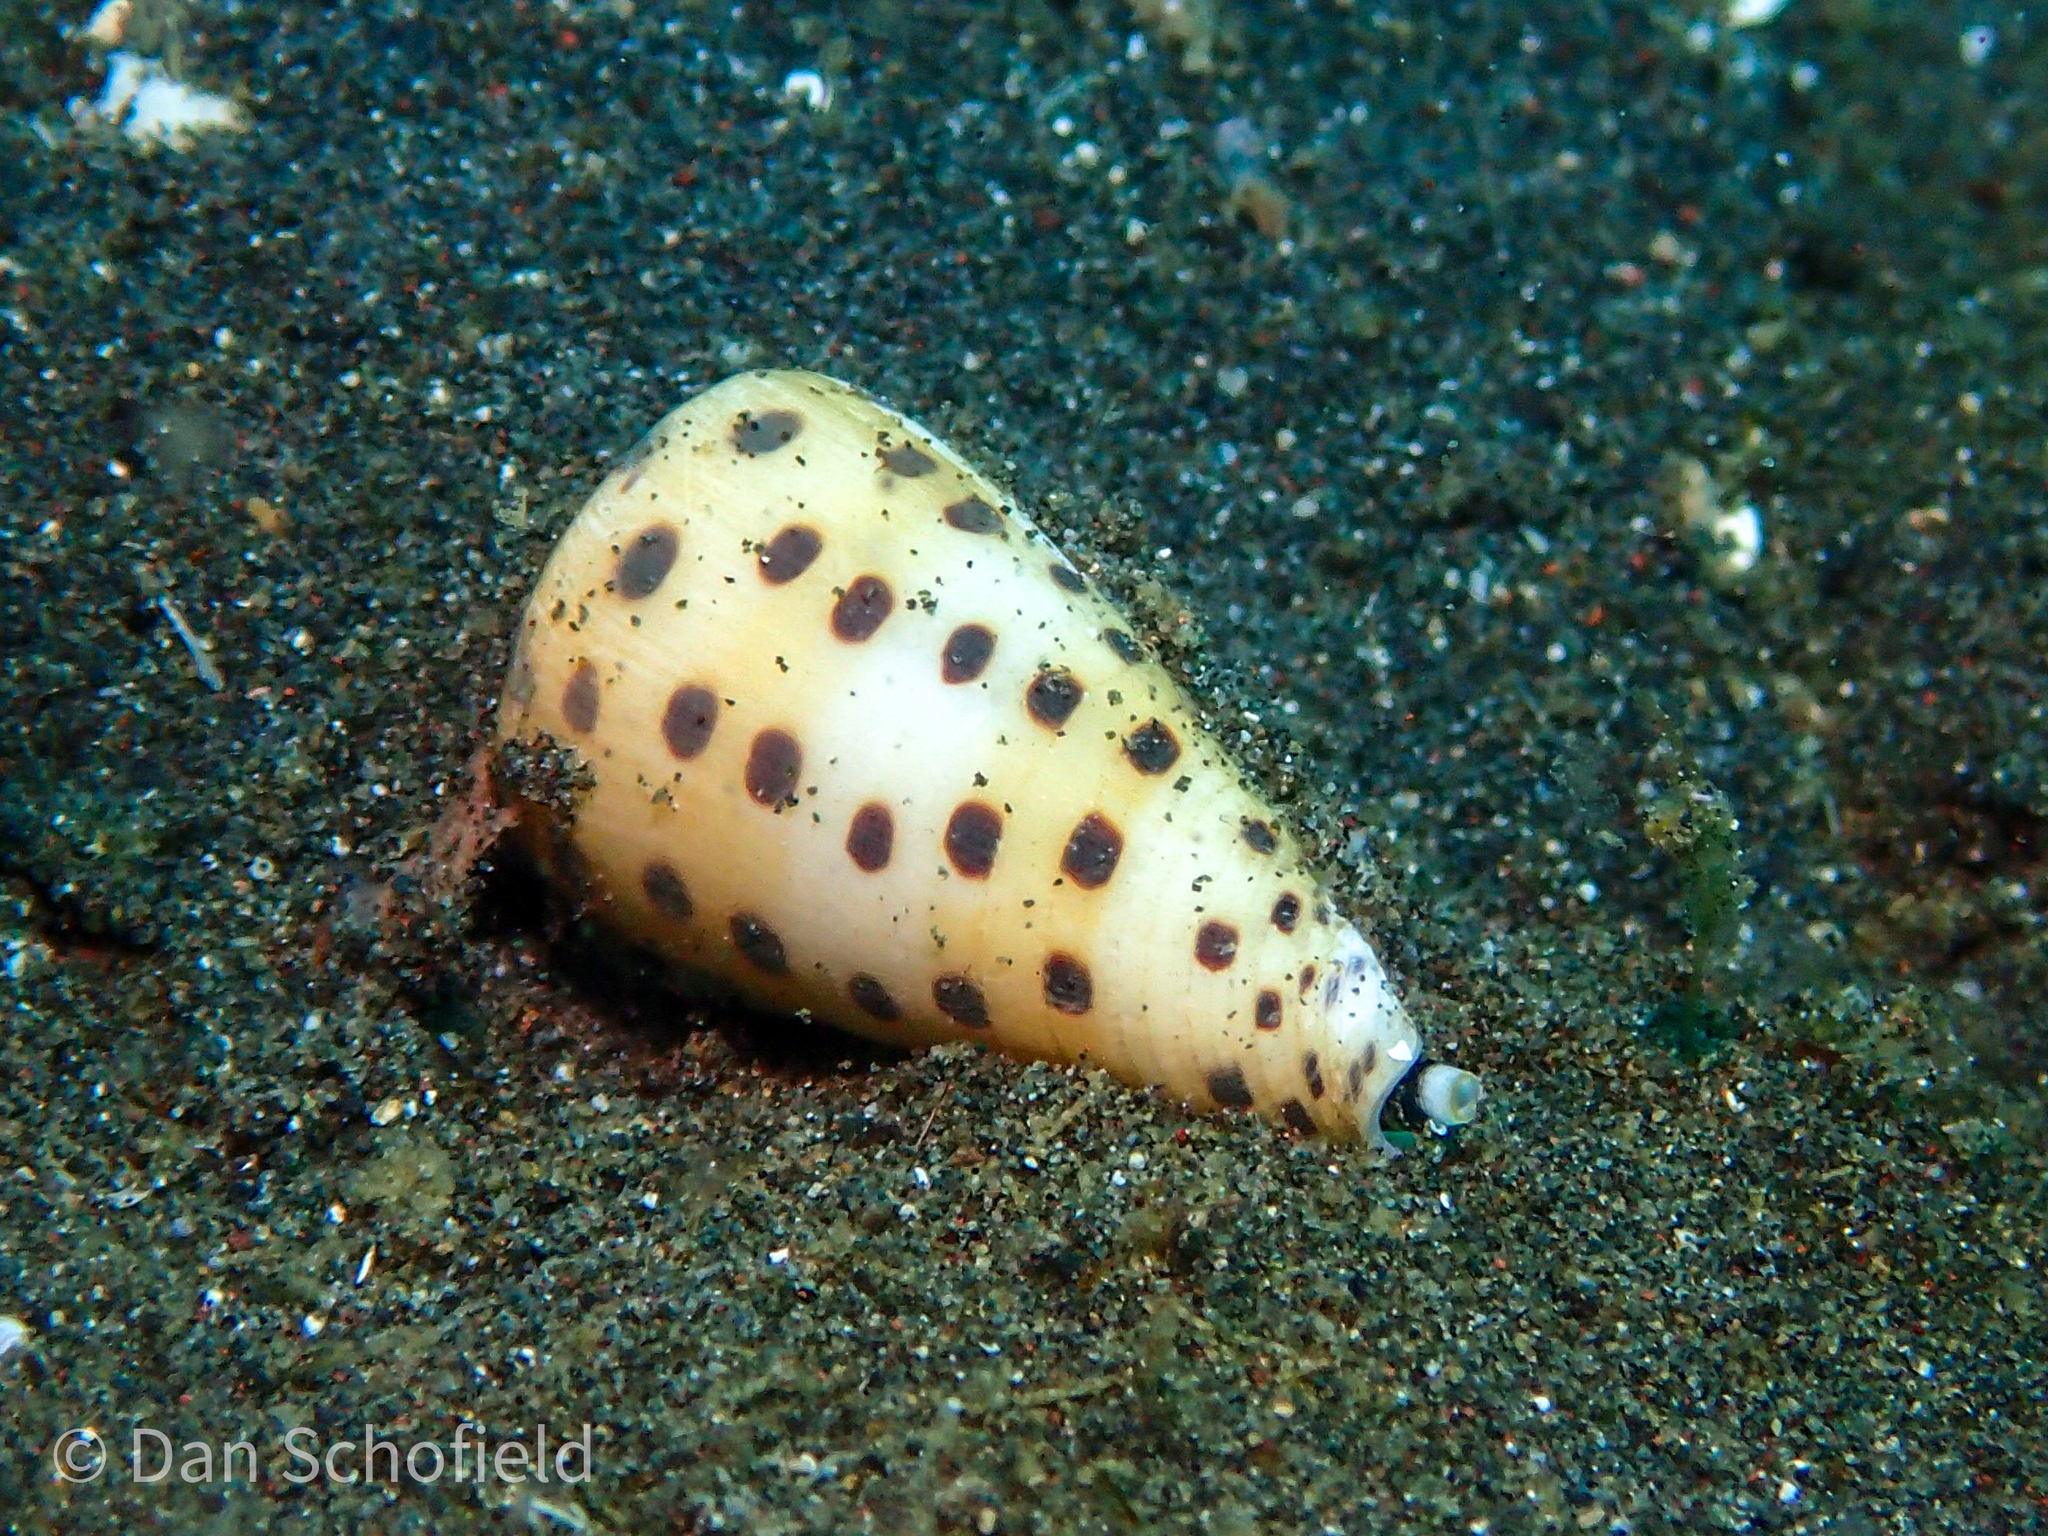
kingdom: Animalia
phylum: Mollusca
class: Gastropoda
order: Neogastropoda
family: Conidae
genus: Conus
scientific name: Conus eburneus
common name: Ivory cone
